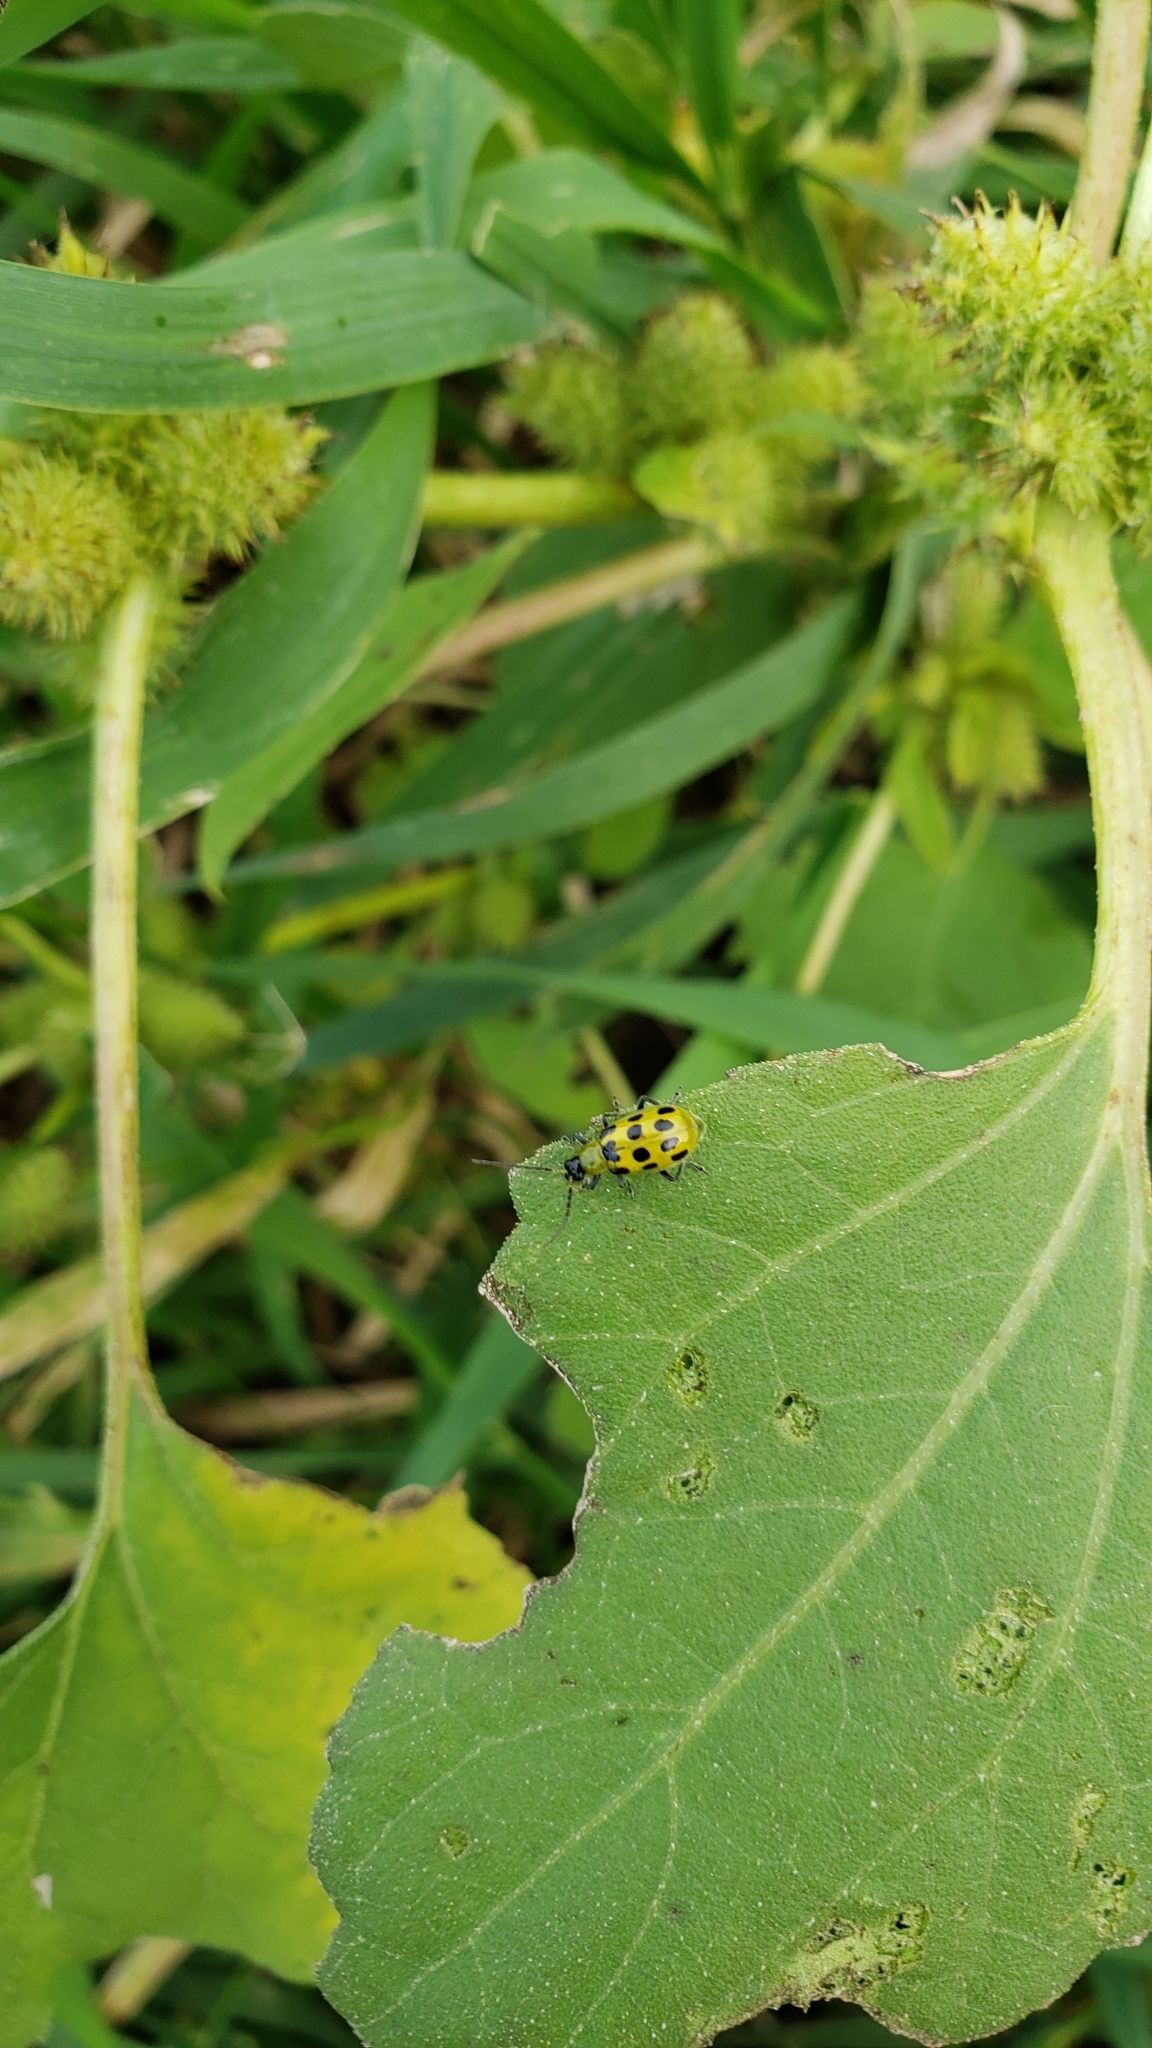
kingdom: Animalia
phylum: Arthropoda
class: Insecta
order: Coleoptera
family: Chrysomelidae
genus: Diabrotica
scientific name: Diabrotica undecimpunctata
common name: Spotted cucumber beetle
